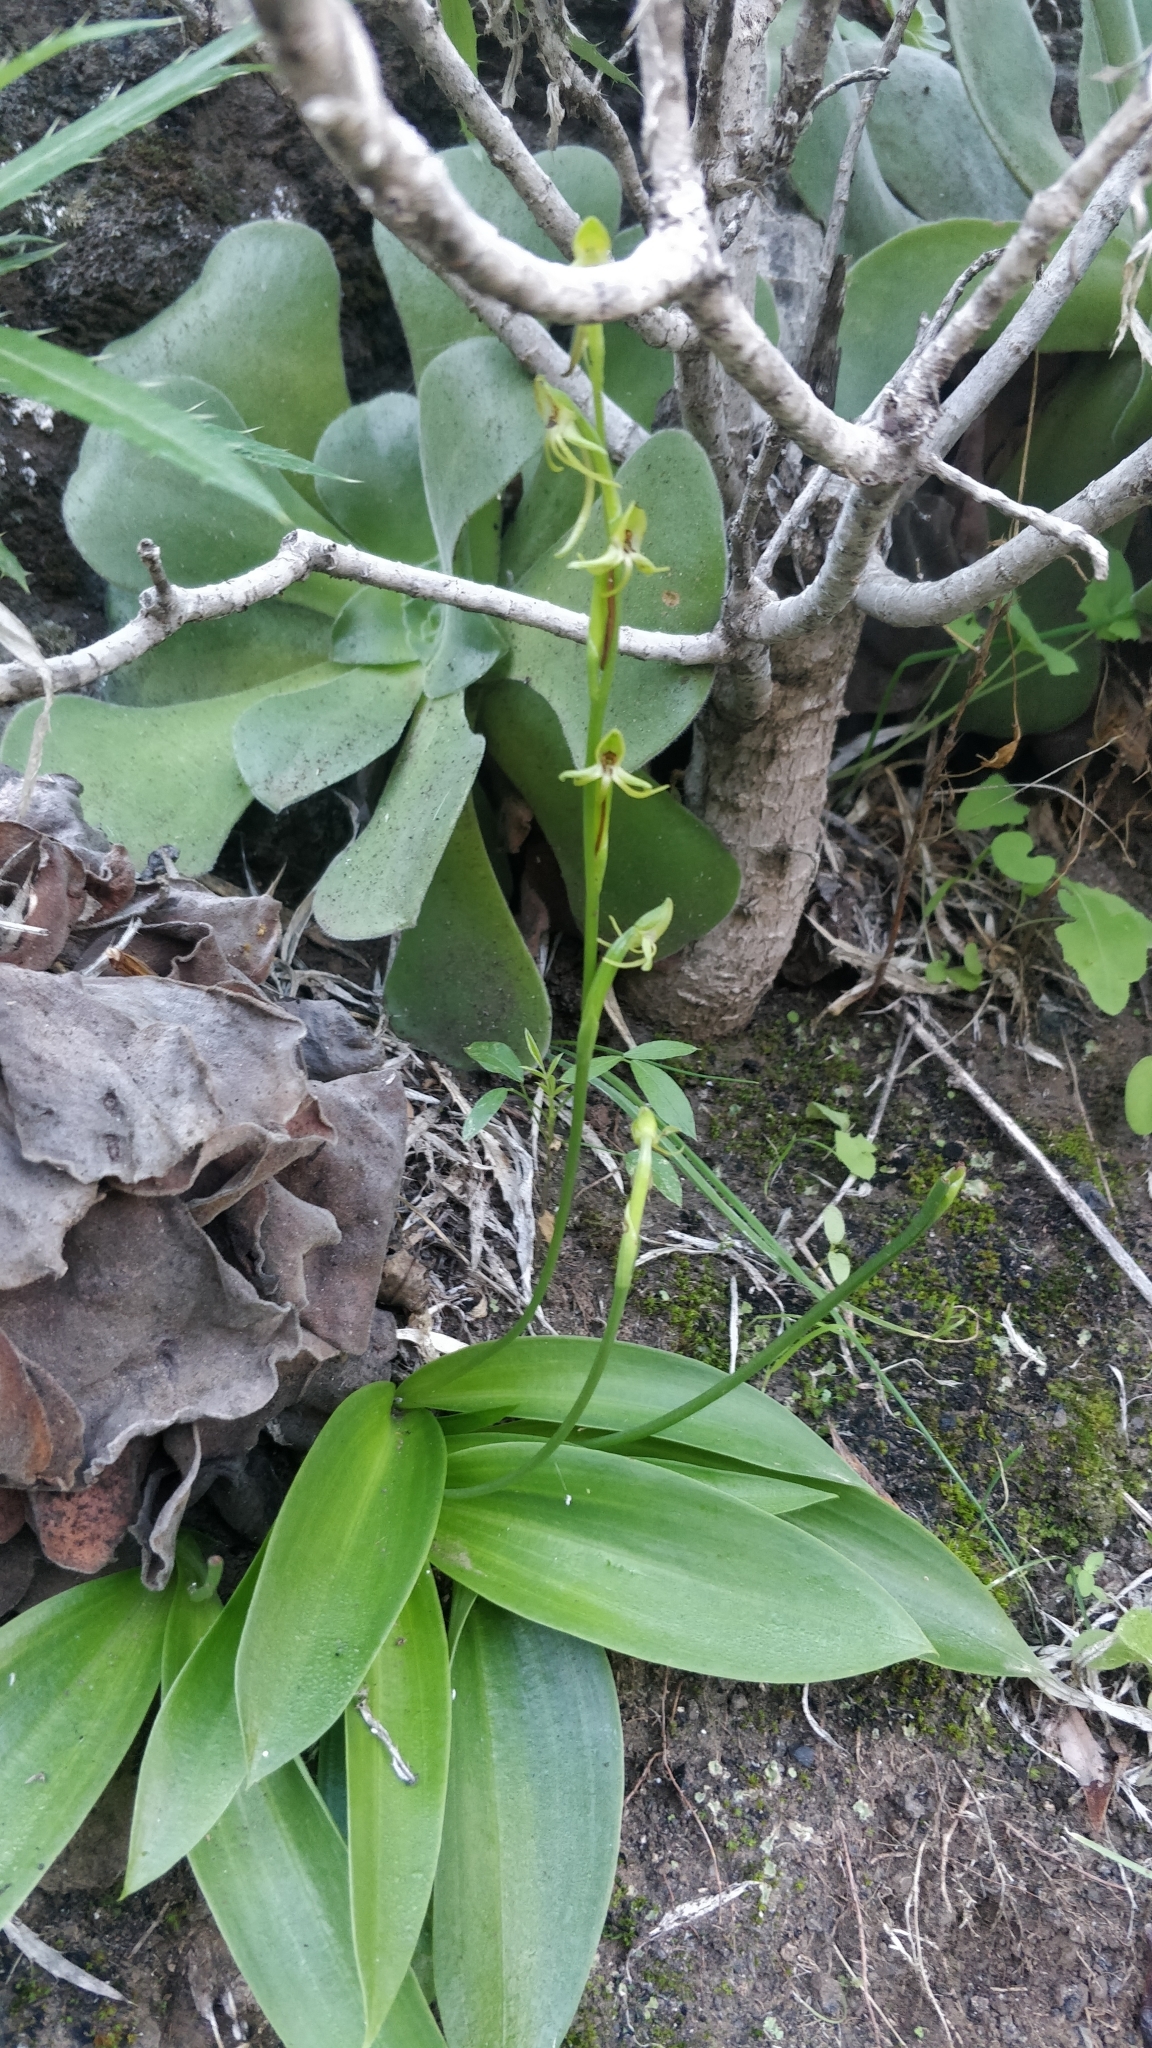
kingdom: Plantae
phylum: Tracheophyta
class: Liliopsida
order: Asparagales
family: Orchidaceae
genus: Habenaria
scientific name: Habenaria tridactylites
